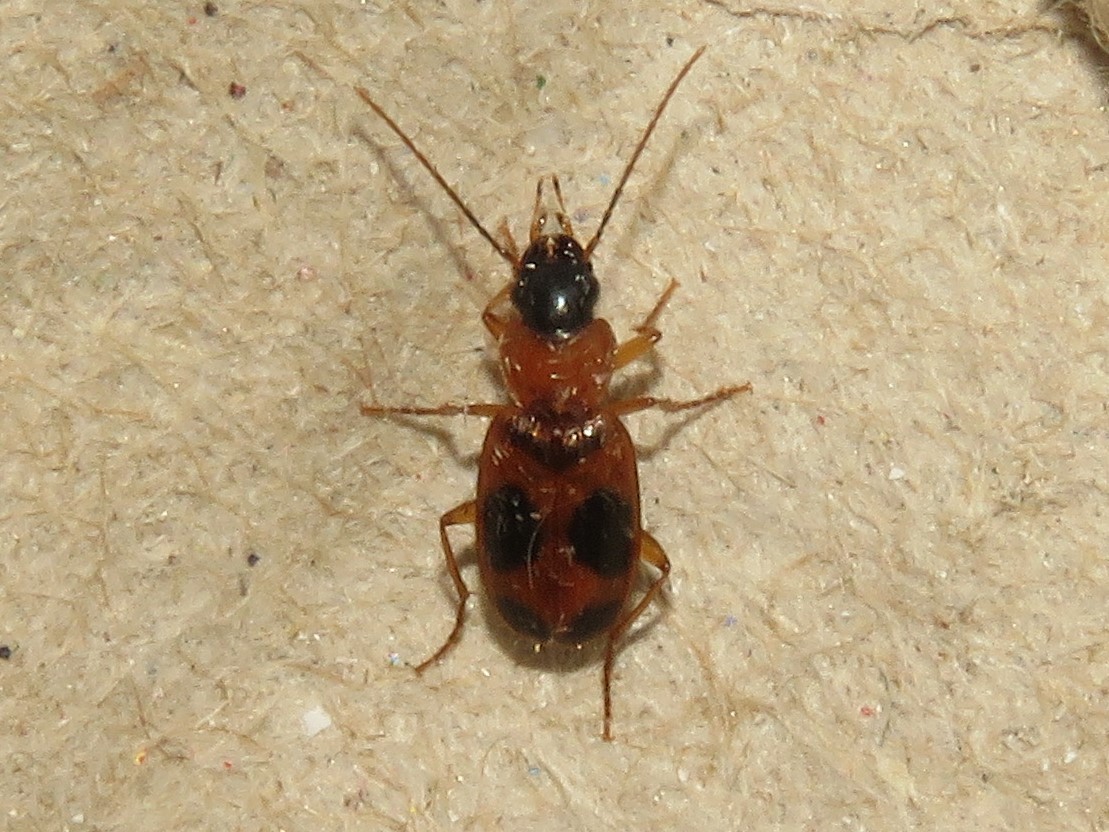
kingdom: Animalia
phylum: Arthropoda
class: Insecta
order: Coleoptera
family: Carabidae
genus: Badister
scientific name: Badister neopulchellus
